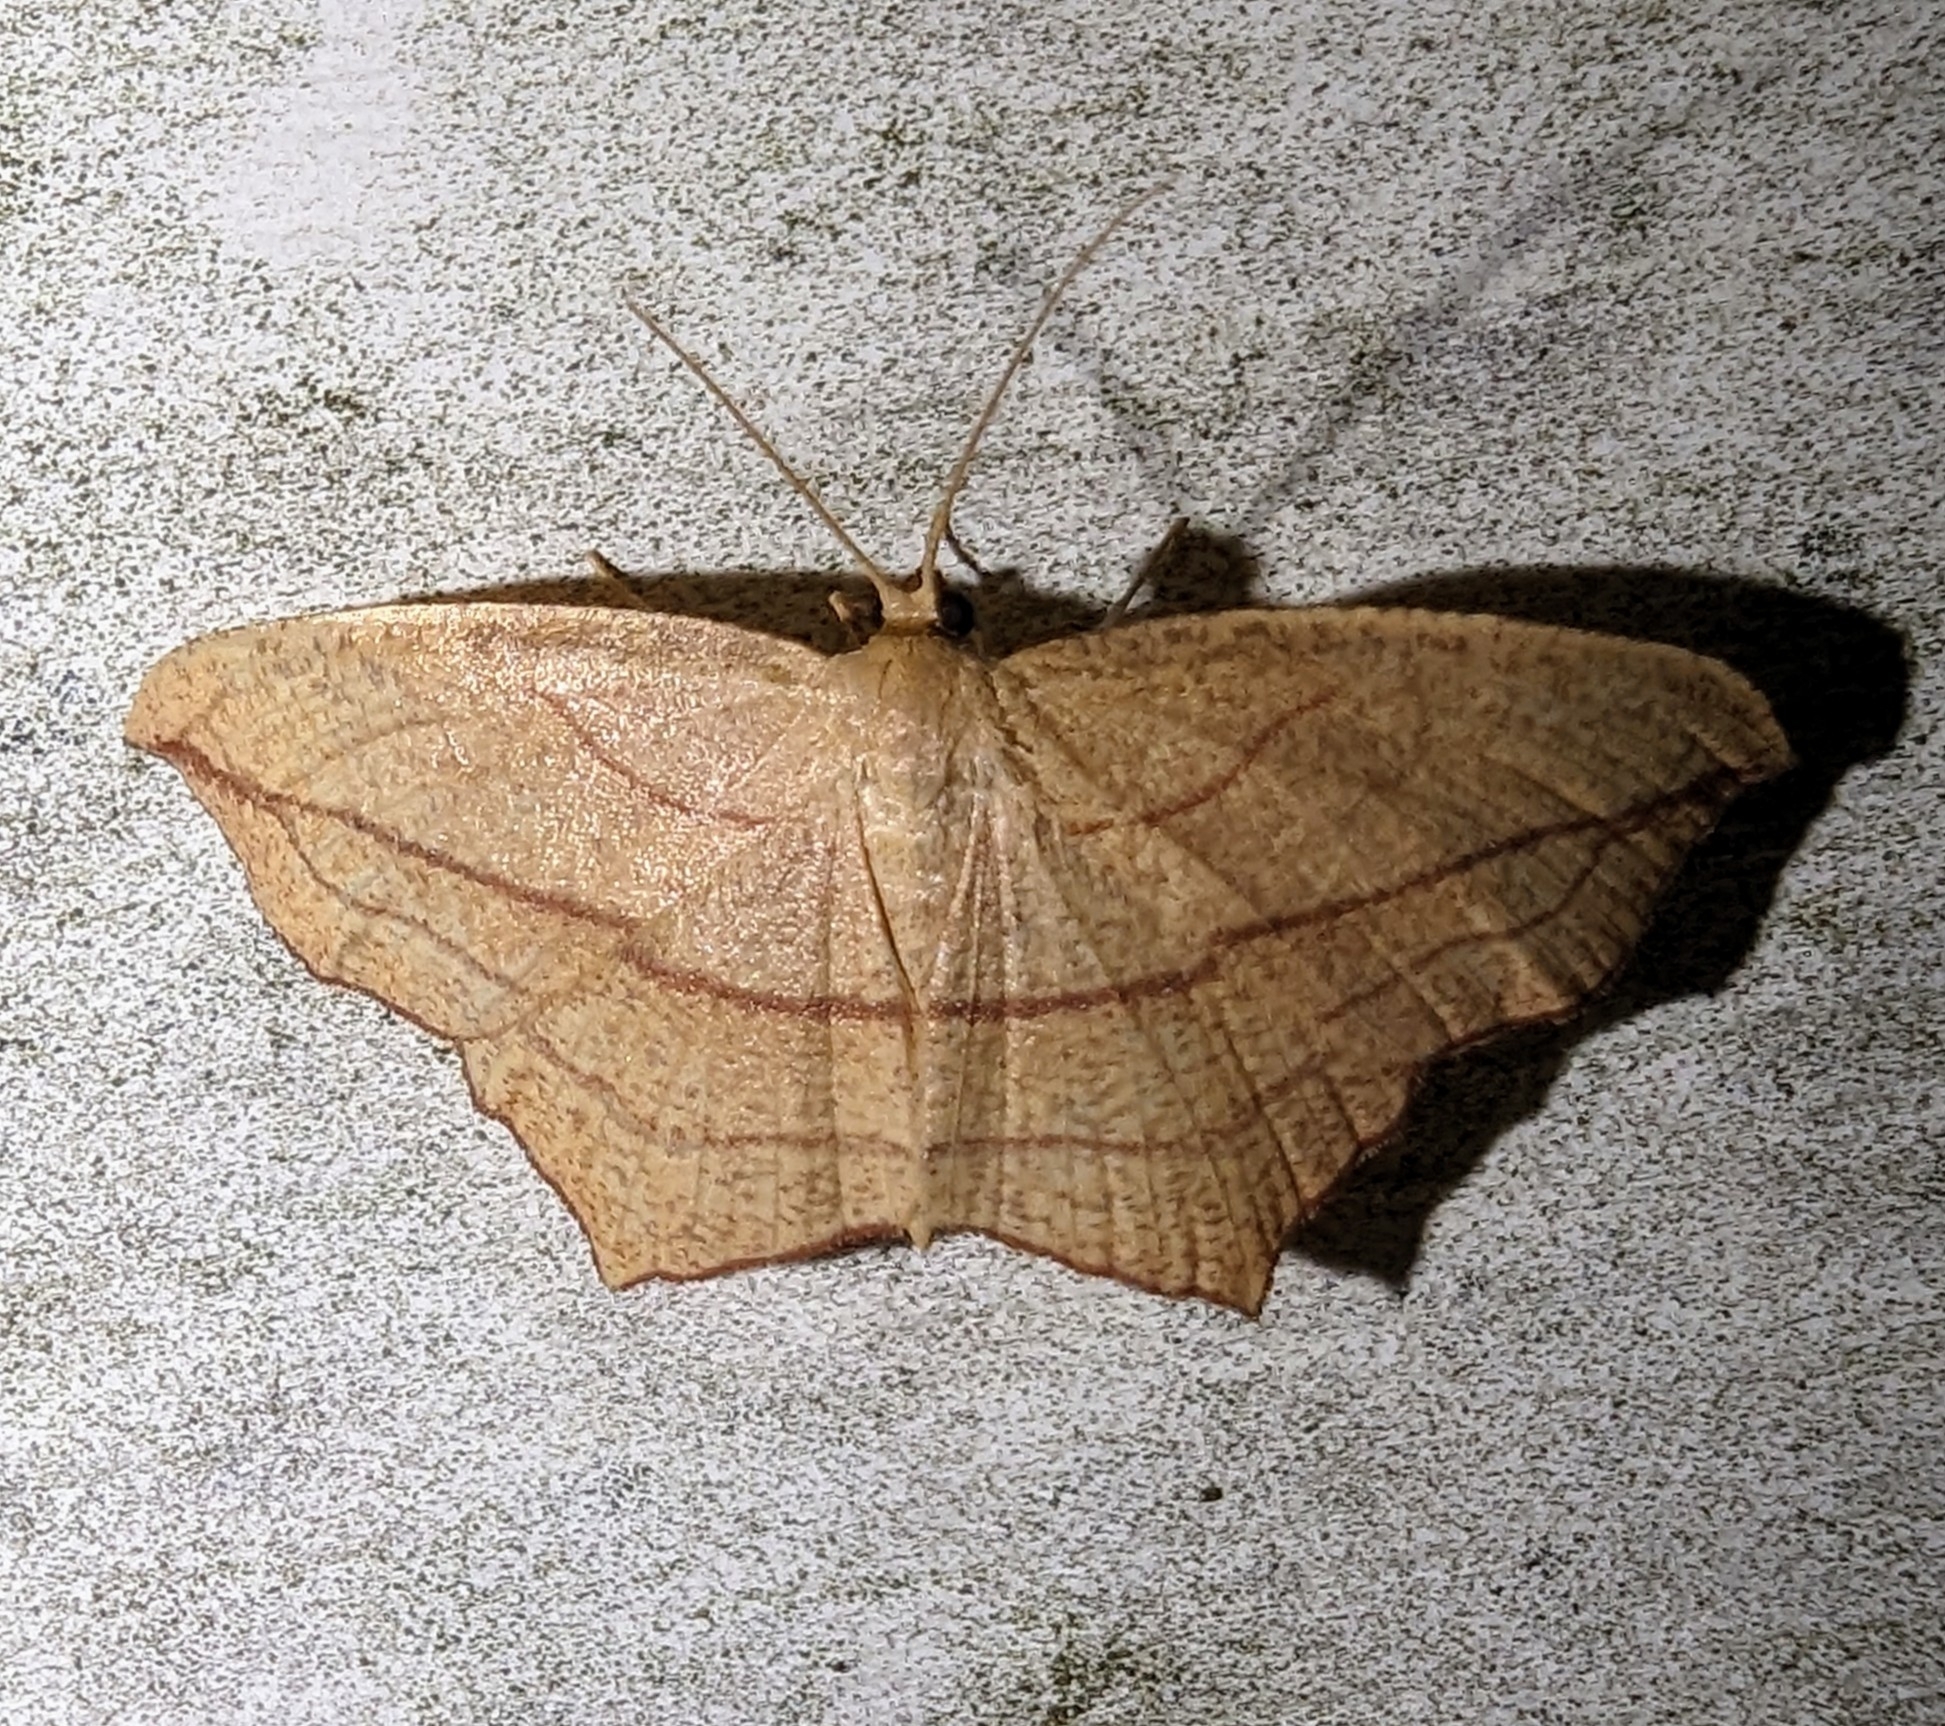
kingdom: Animalia
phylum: Arthropoda
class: Insecta
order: Lepidoptera
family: Geometridae
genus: Timandra
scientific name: Timandra amaturaria
